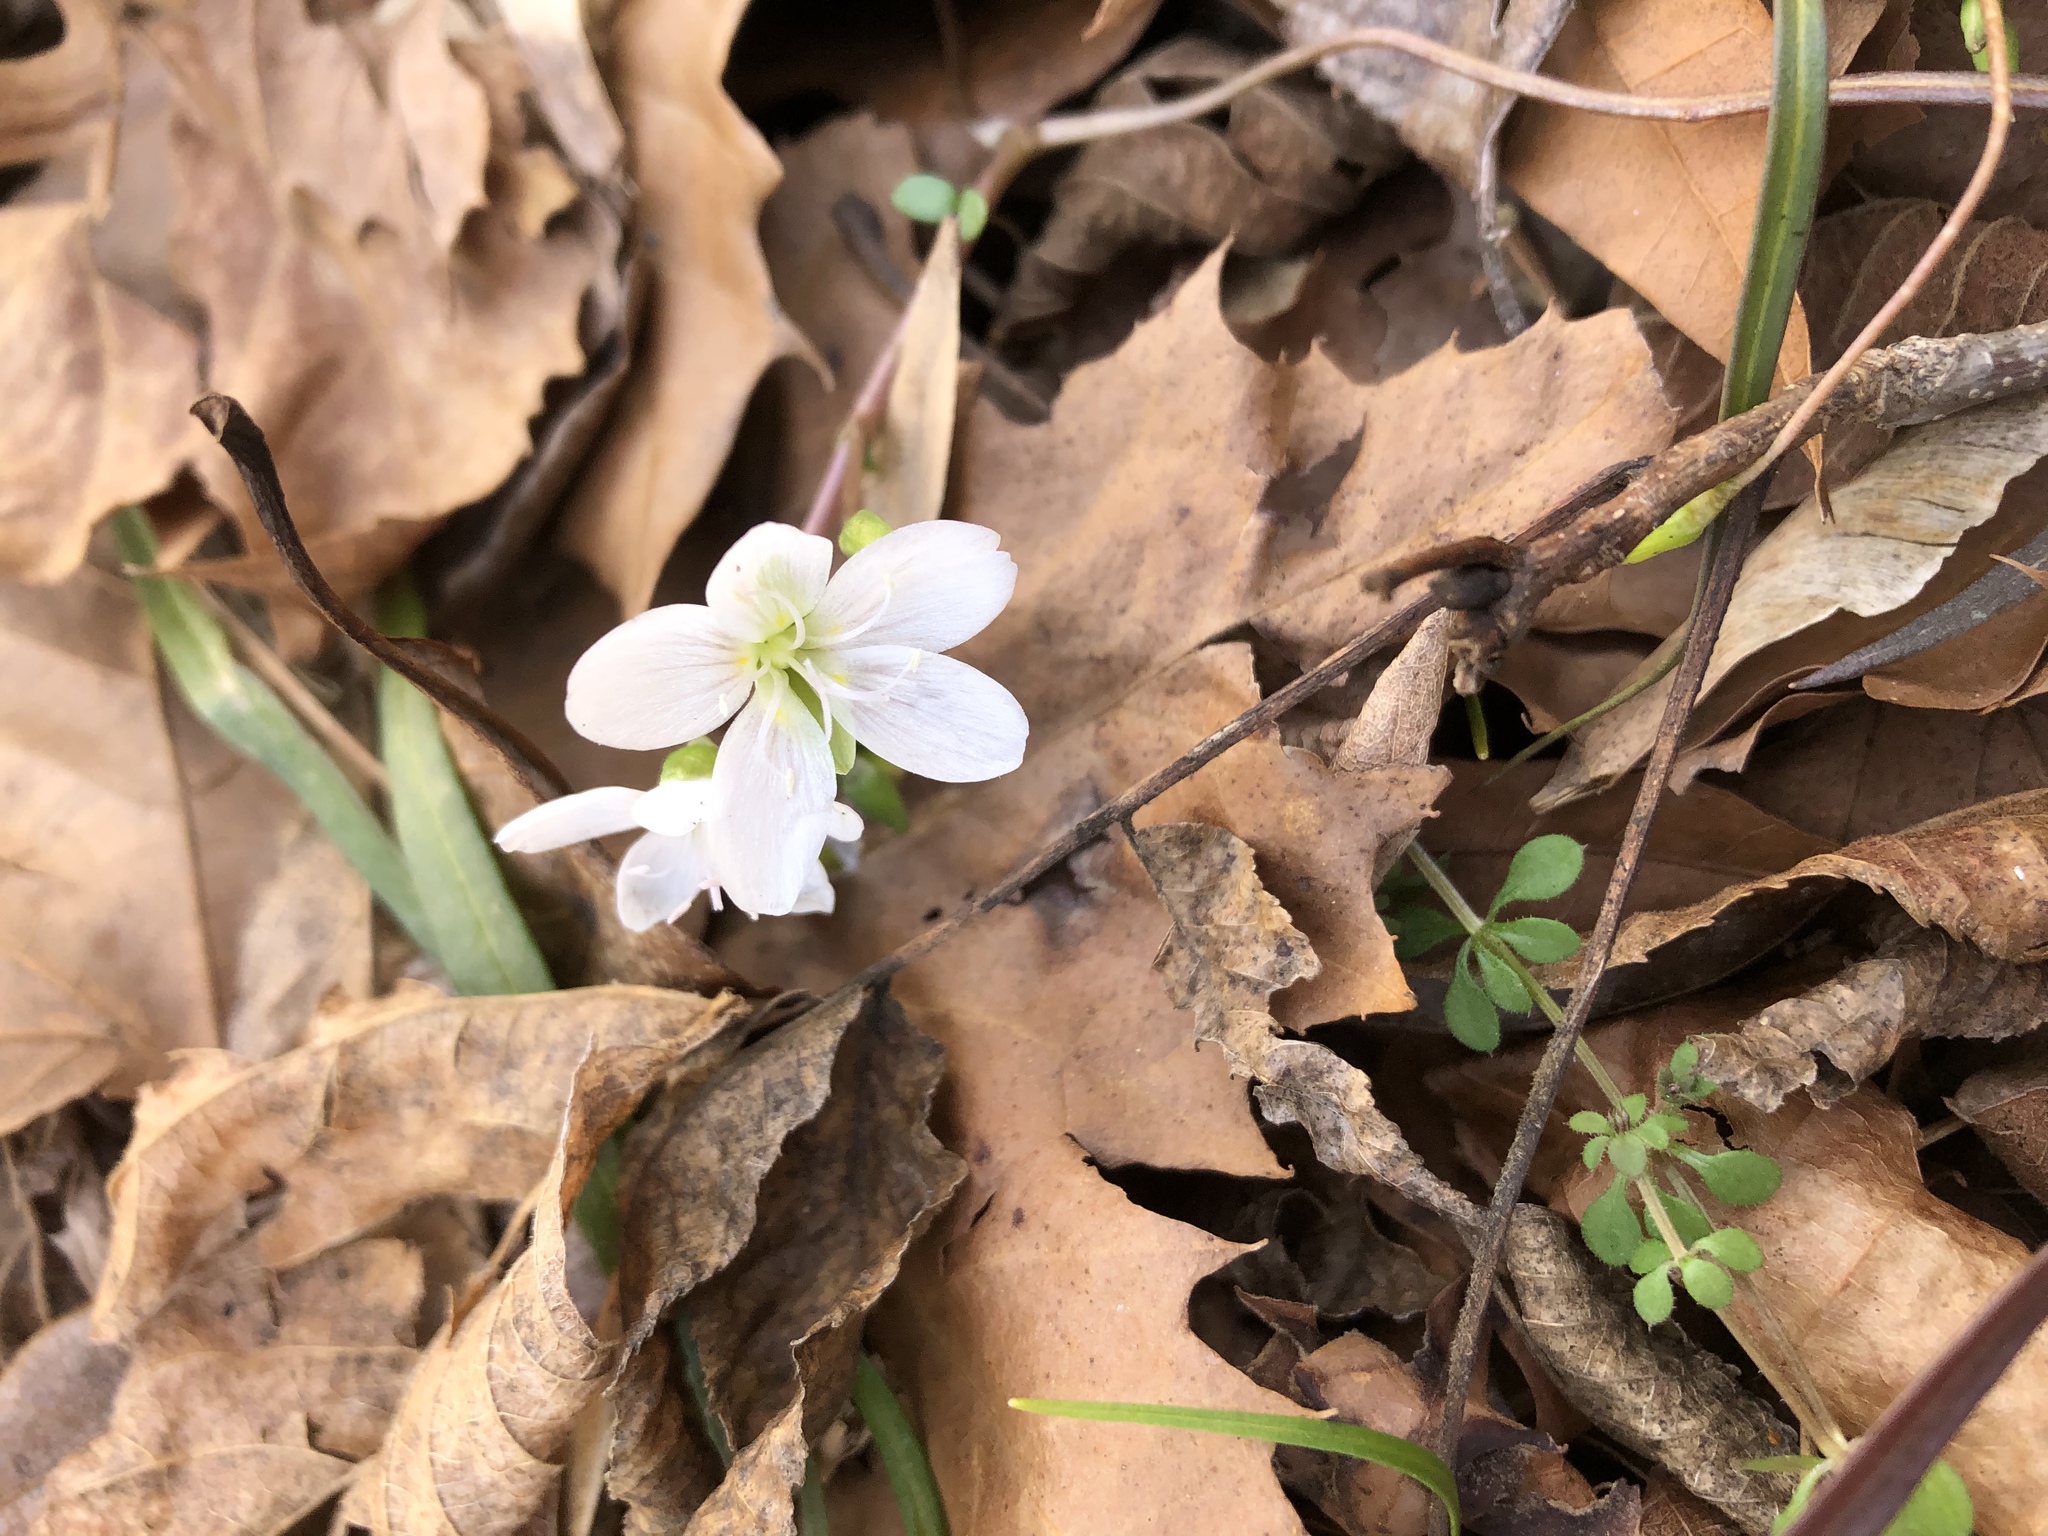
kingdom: Plantae
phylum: Tracheophyta
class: Magnoliopsida
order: Caryophyllales
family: Montiaceae
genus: Claytonia
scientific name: Claytonia virginica
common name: Virginia springbeauty
